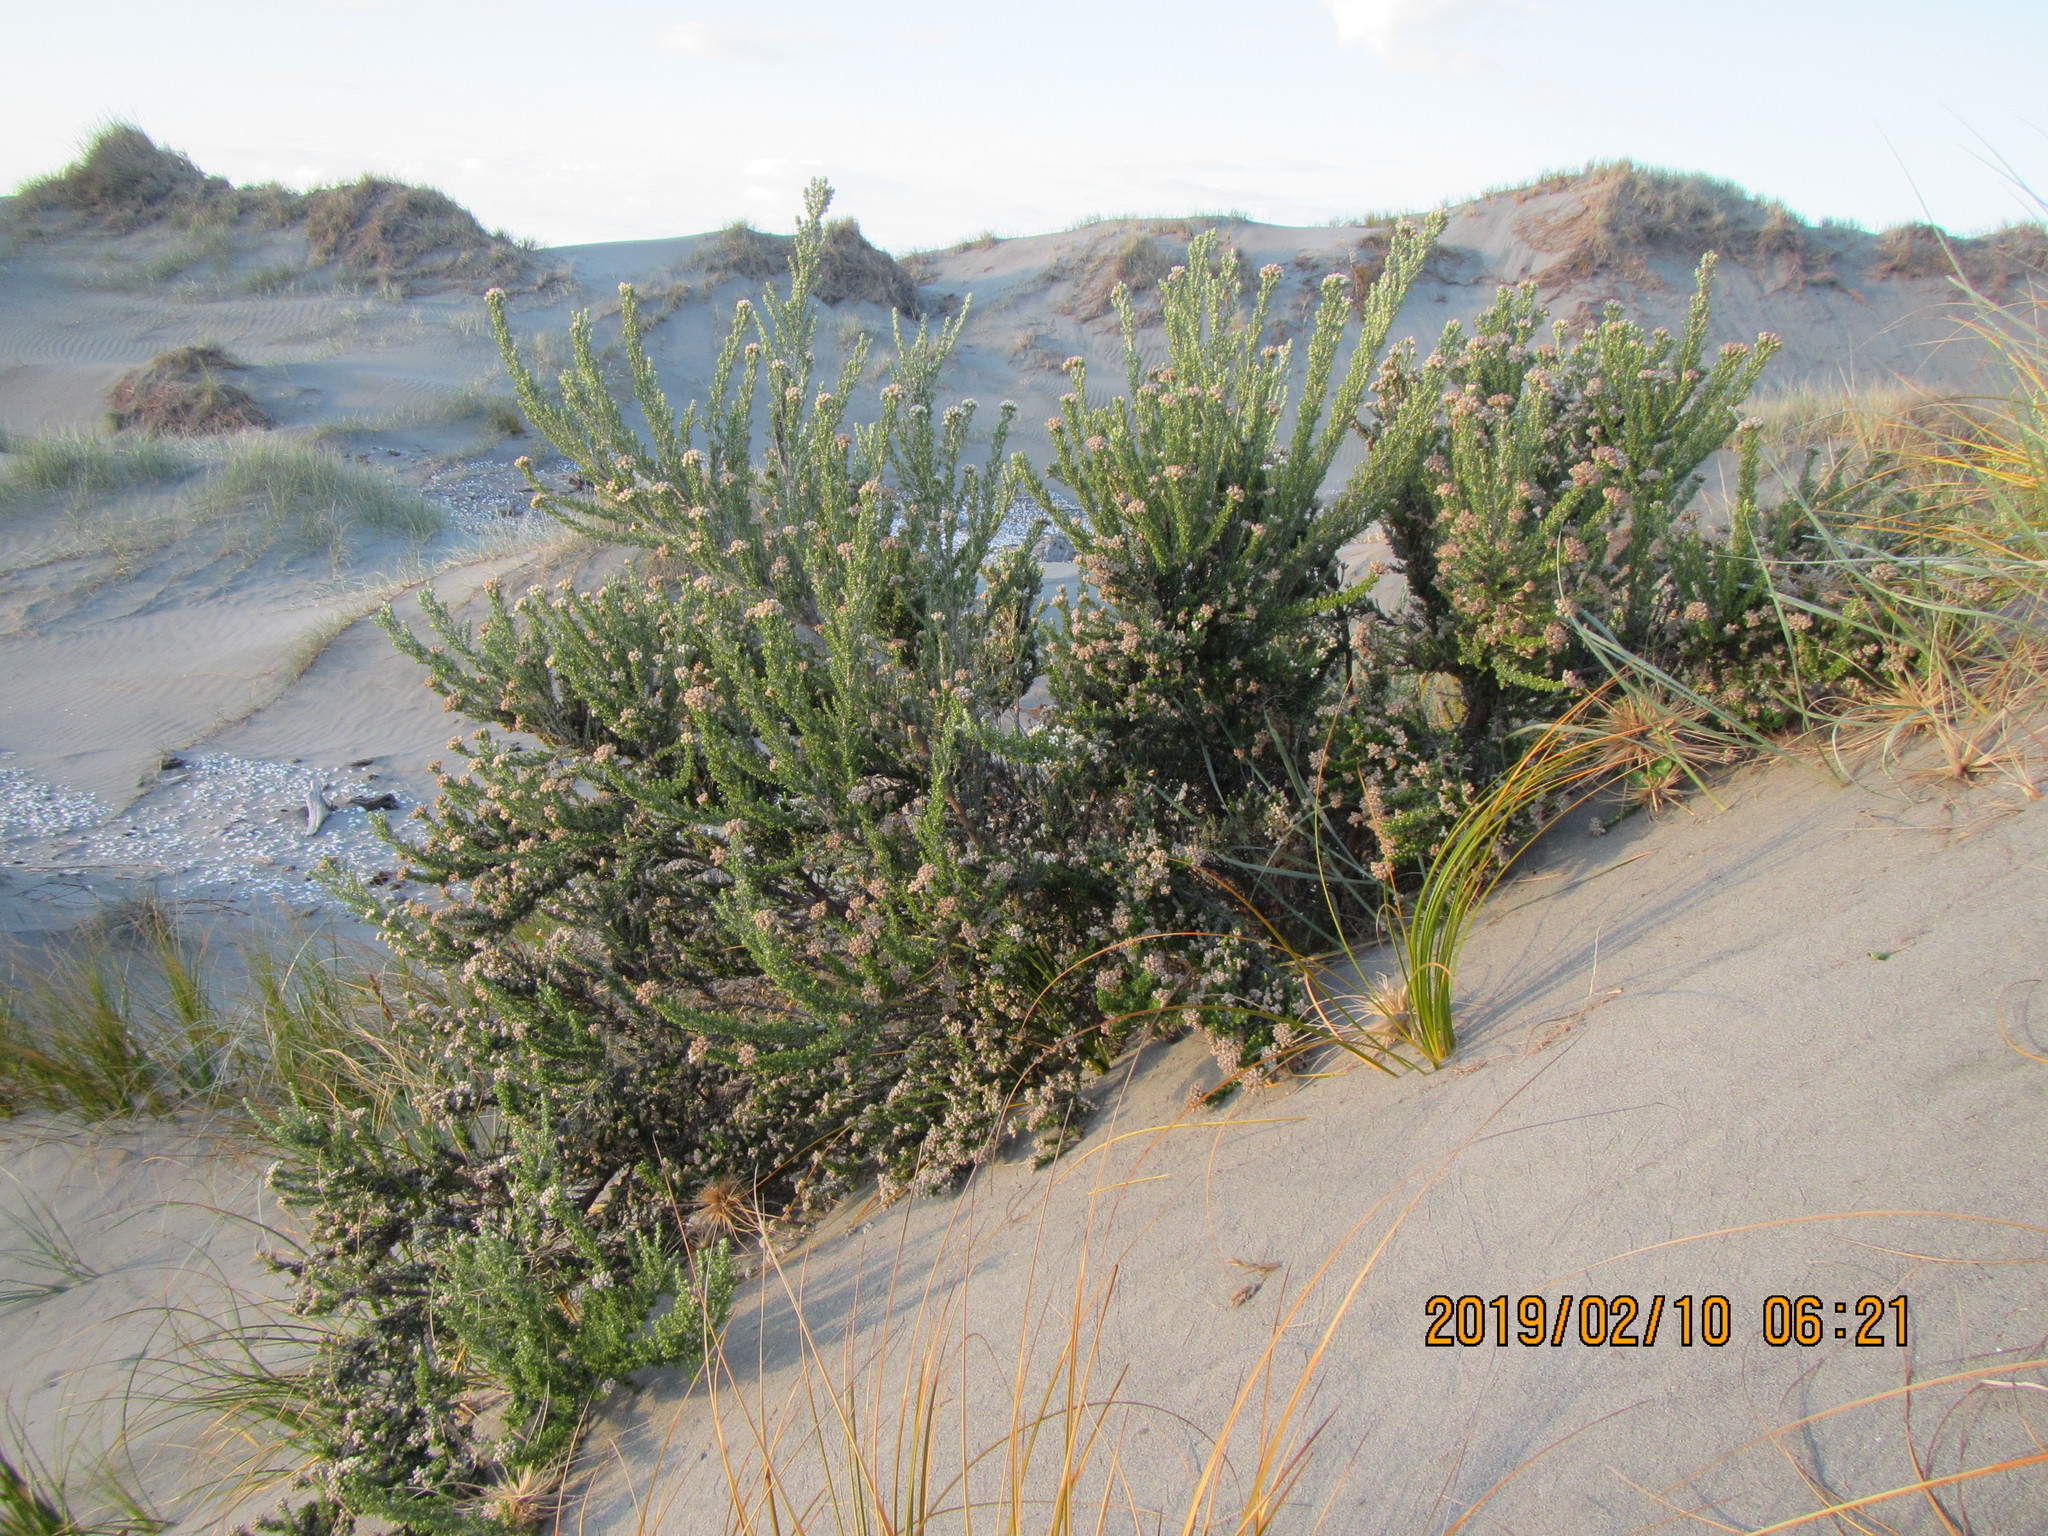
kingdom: Plantae
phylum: Tracheophyta
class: Magnoliopsida
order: Asterales
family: Asteraceae
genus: Ozothamnus
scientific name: Ozothamnus leptophyllus
